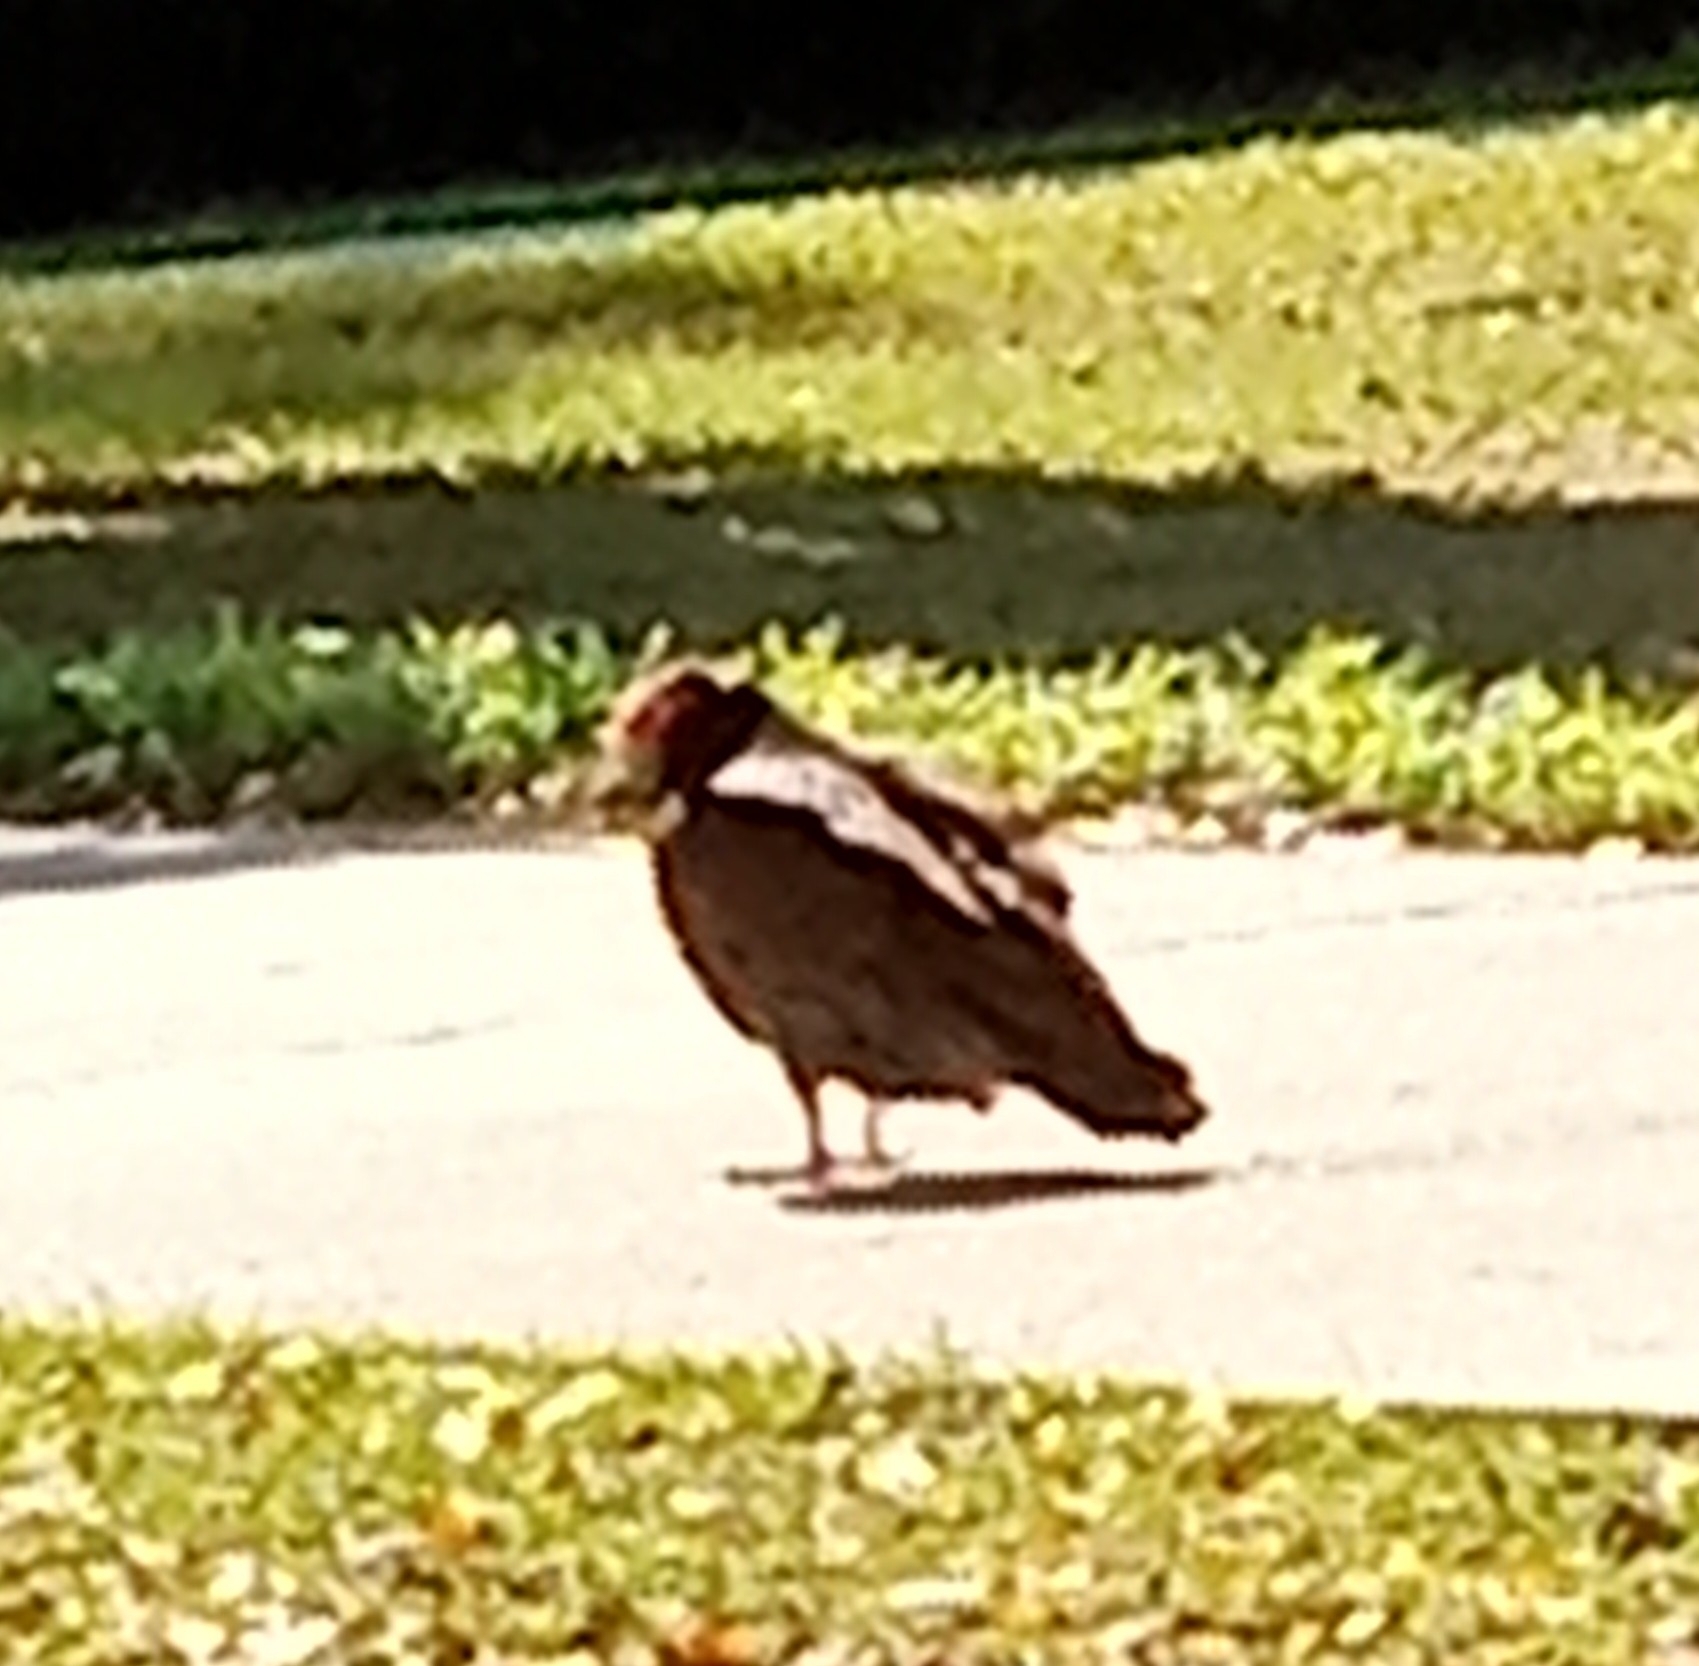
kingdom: Animalia
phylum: Chordata
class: Aves
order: Accipitriformes
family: Cathartidae
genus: Cathartes
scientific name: Cathartes aura
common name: Turkey vulture
